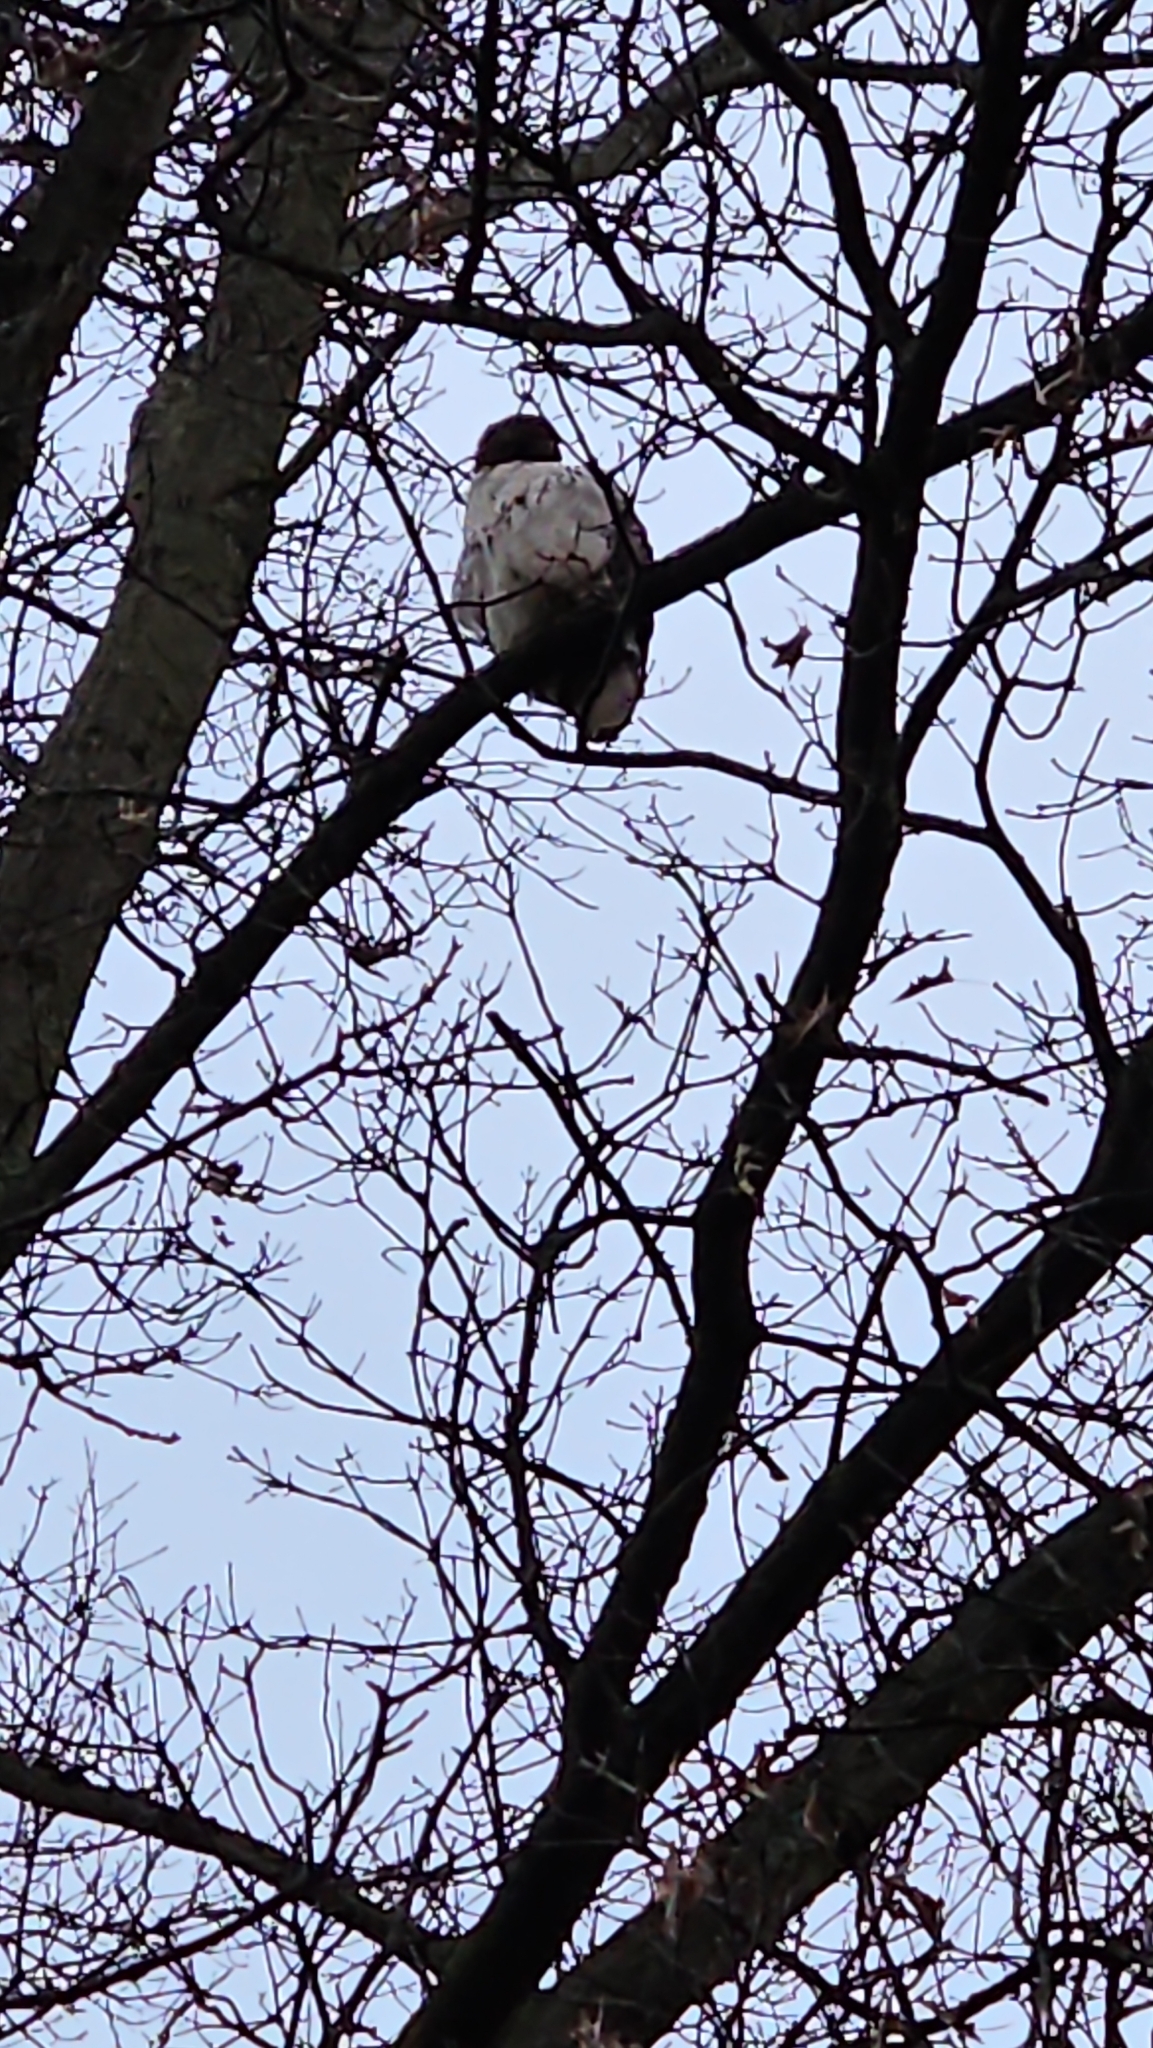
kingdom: Animalia
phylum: Chordata
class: Aves
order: Accipitriformes
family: Accipitridae
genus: Buteo
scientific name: Buteo jamaicensis
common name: Red-tailed hawk
